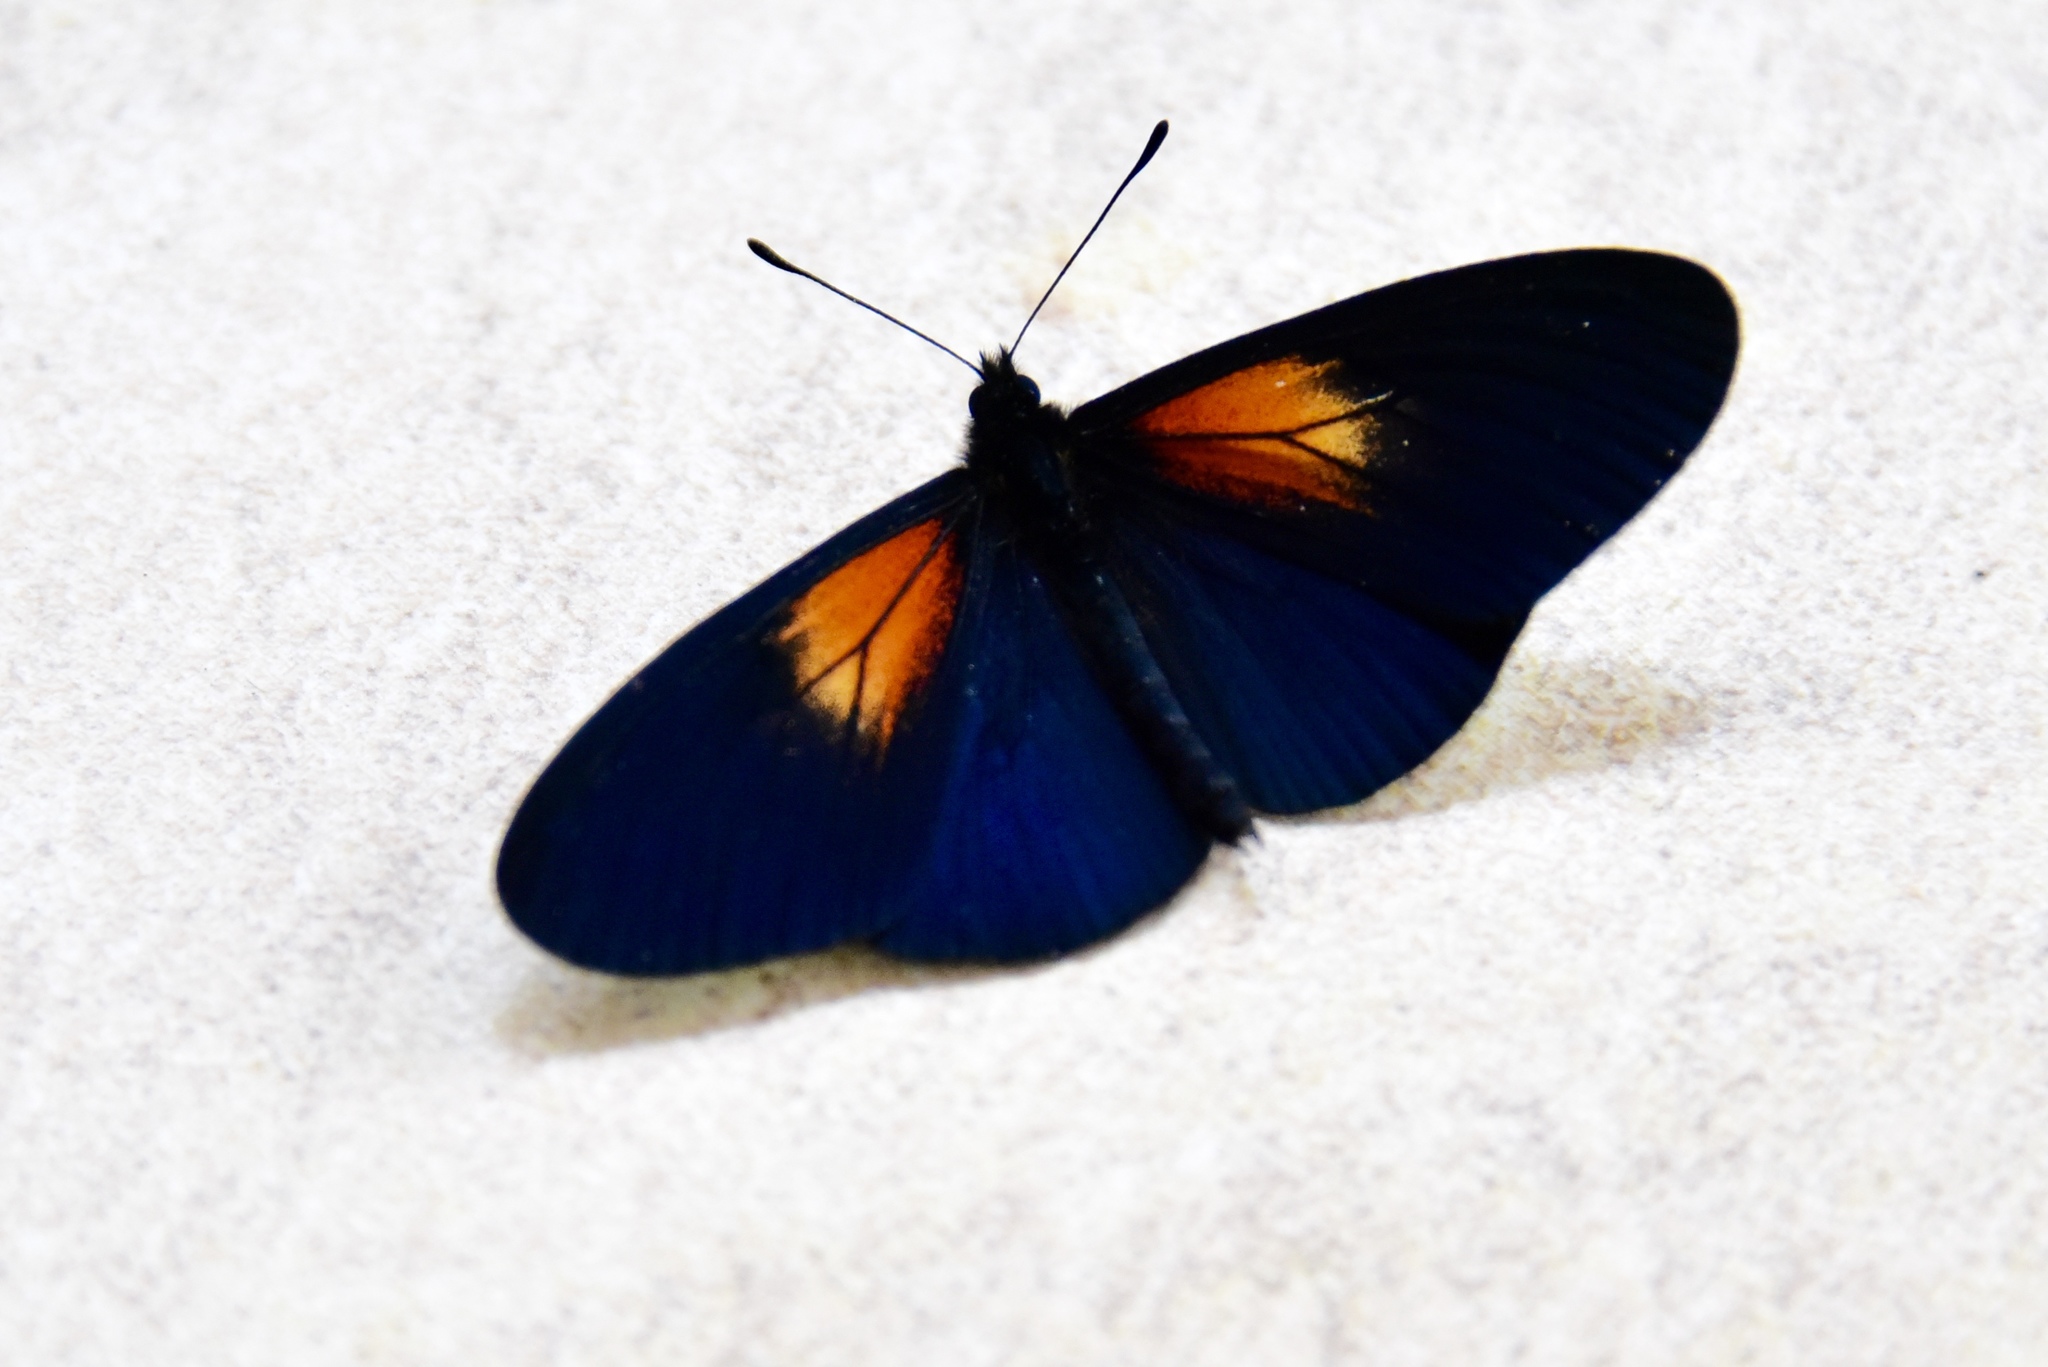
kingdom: Animalia
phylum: Arthropoda
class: Insecta
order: Lepidoptera
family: Nymphalidae
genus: Acraea
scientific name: Acraea Altinote ozomene
